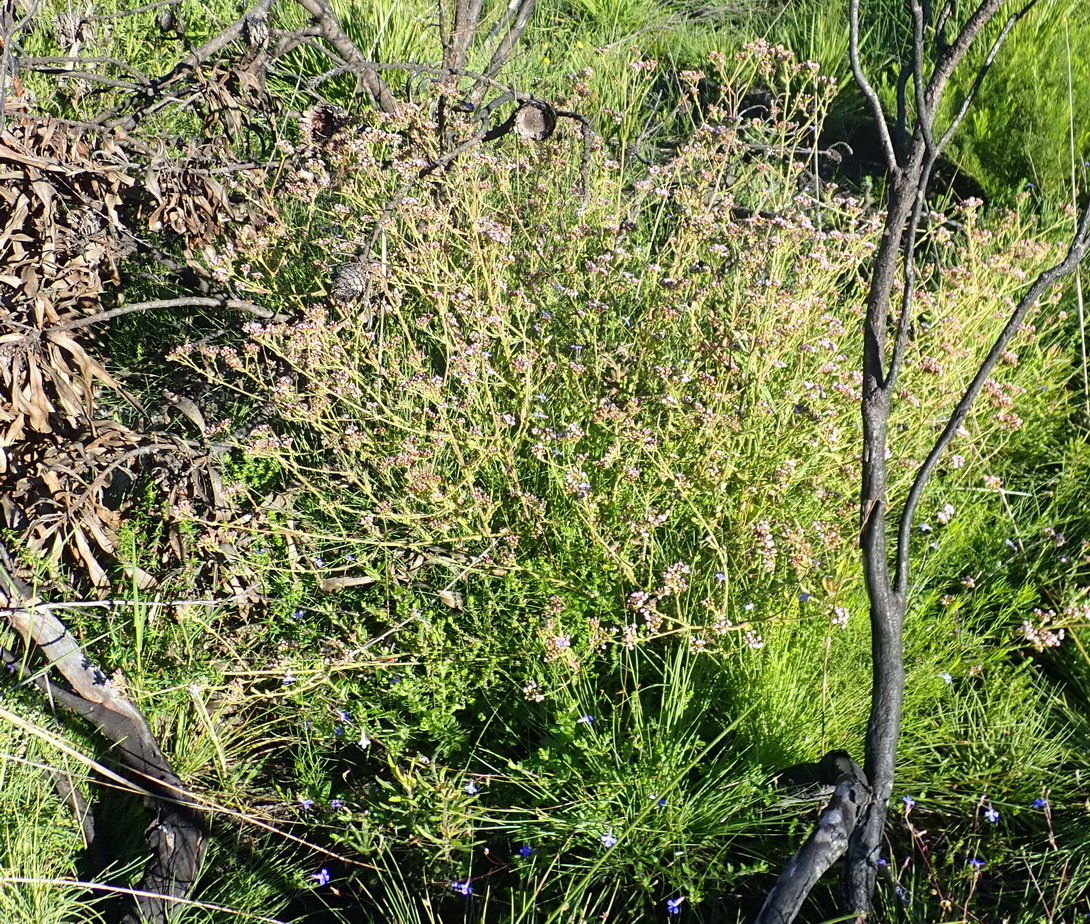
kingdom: Plantae
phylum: Tracheophyta
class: Magnoliopsida
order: Asterales
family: Asteraceae
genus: Senecio
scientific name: Senecio agapetes
